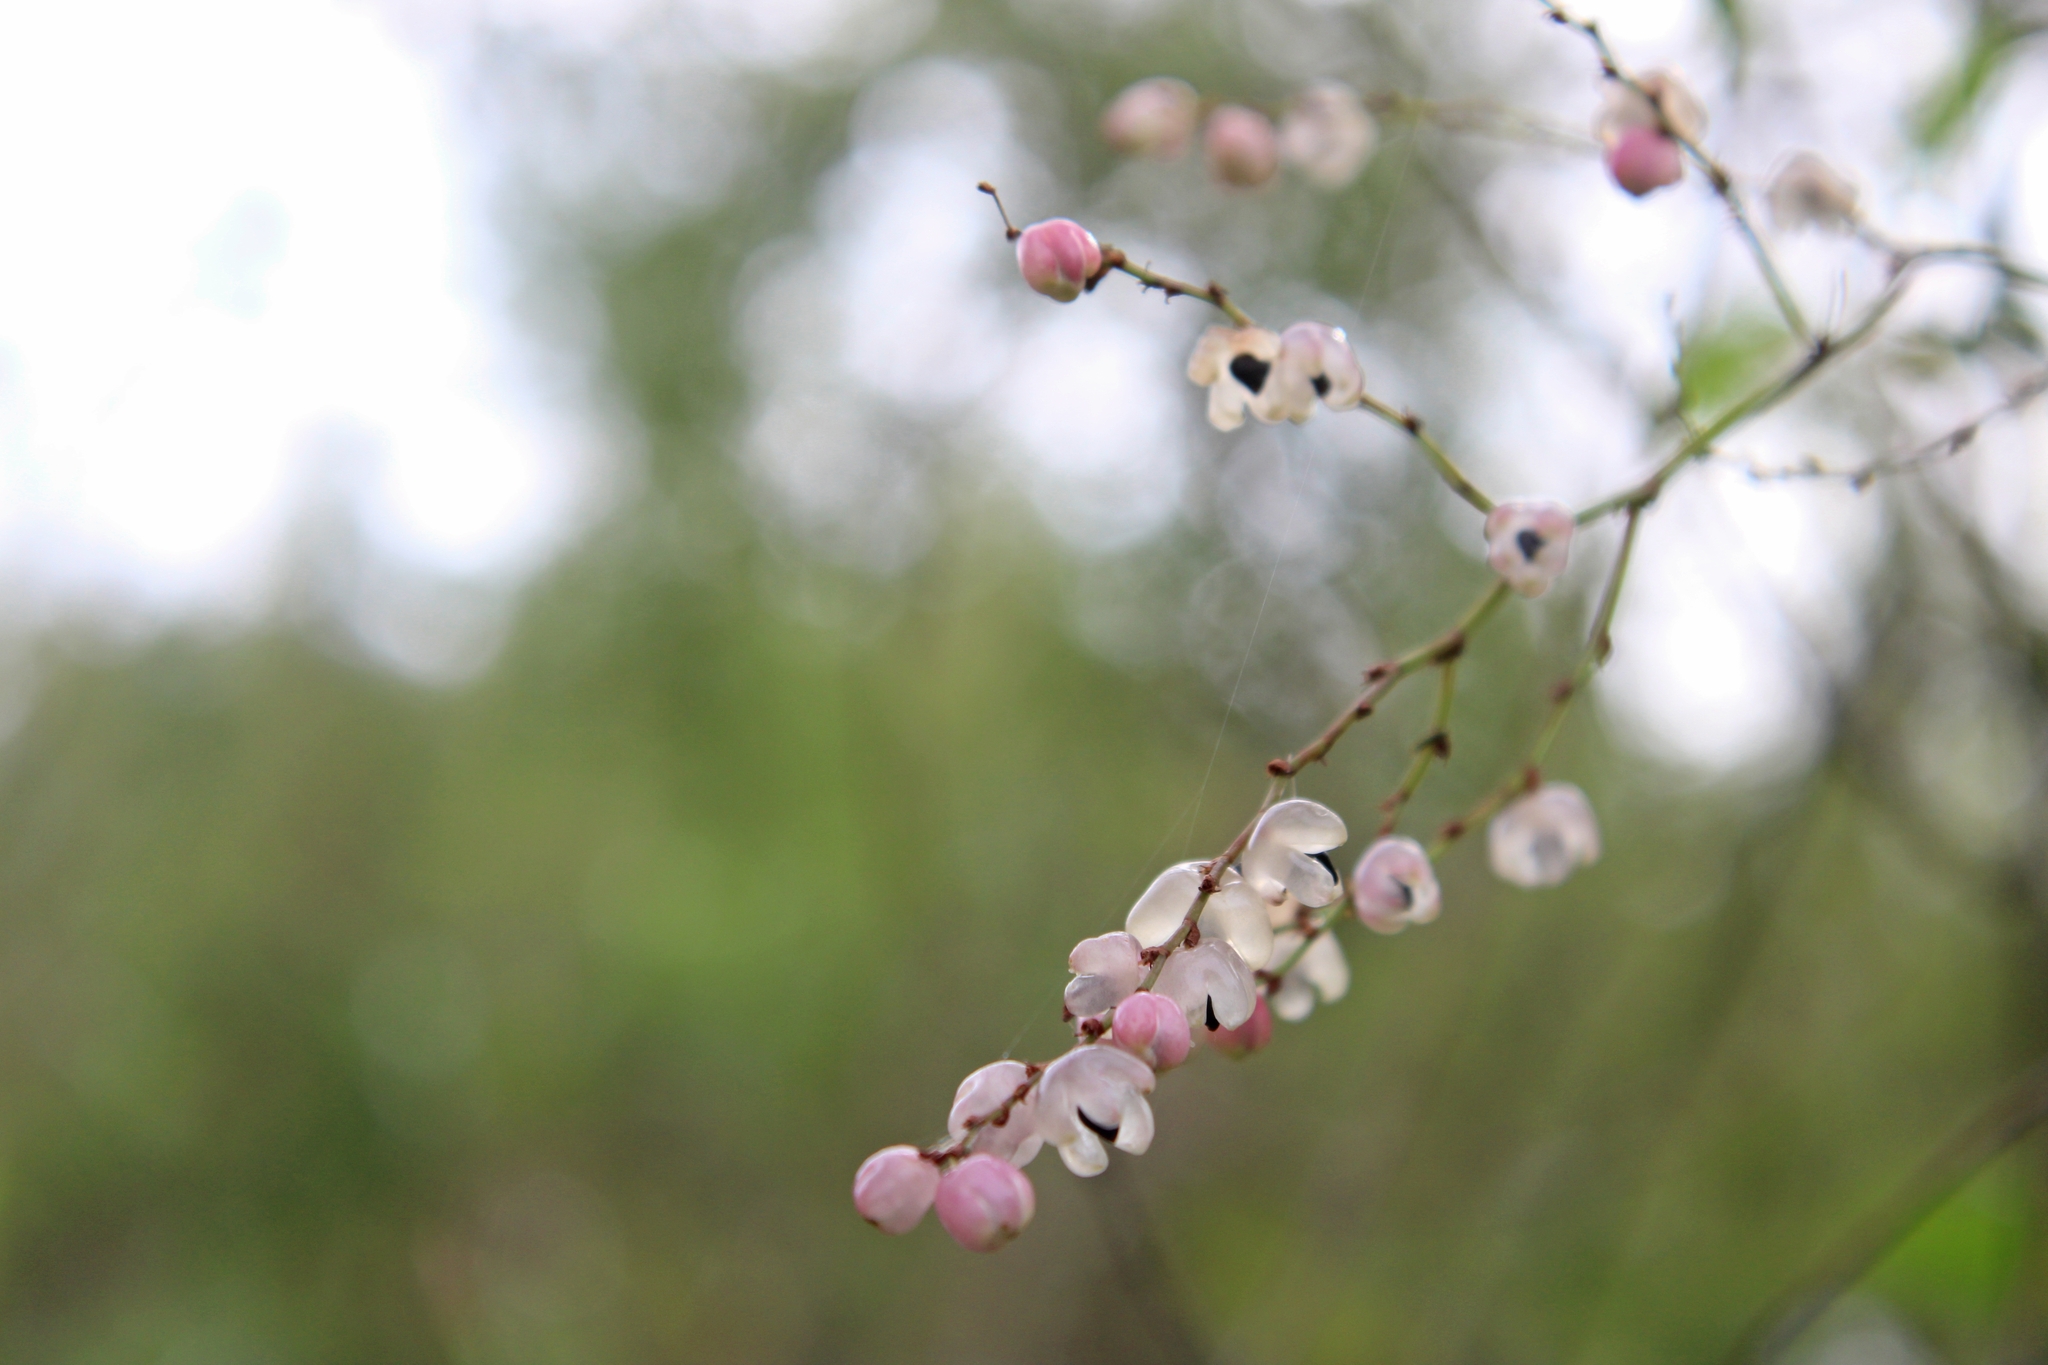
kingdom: Plantae
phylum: Tracheophyta
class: Magnoliopsida
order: Caryophyllales
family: Polygonaceae
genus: Muehlenbeckia
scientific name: Muehlenbeckia sagittifolia
